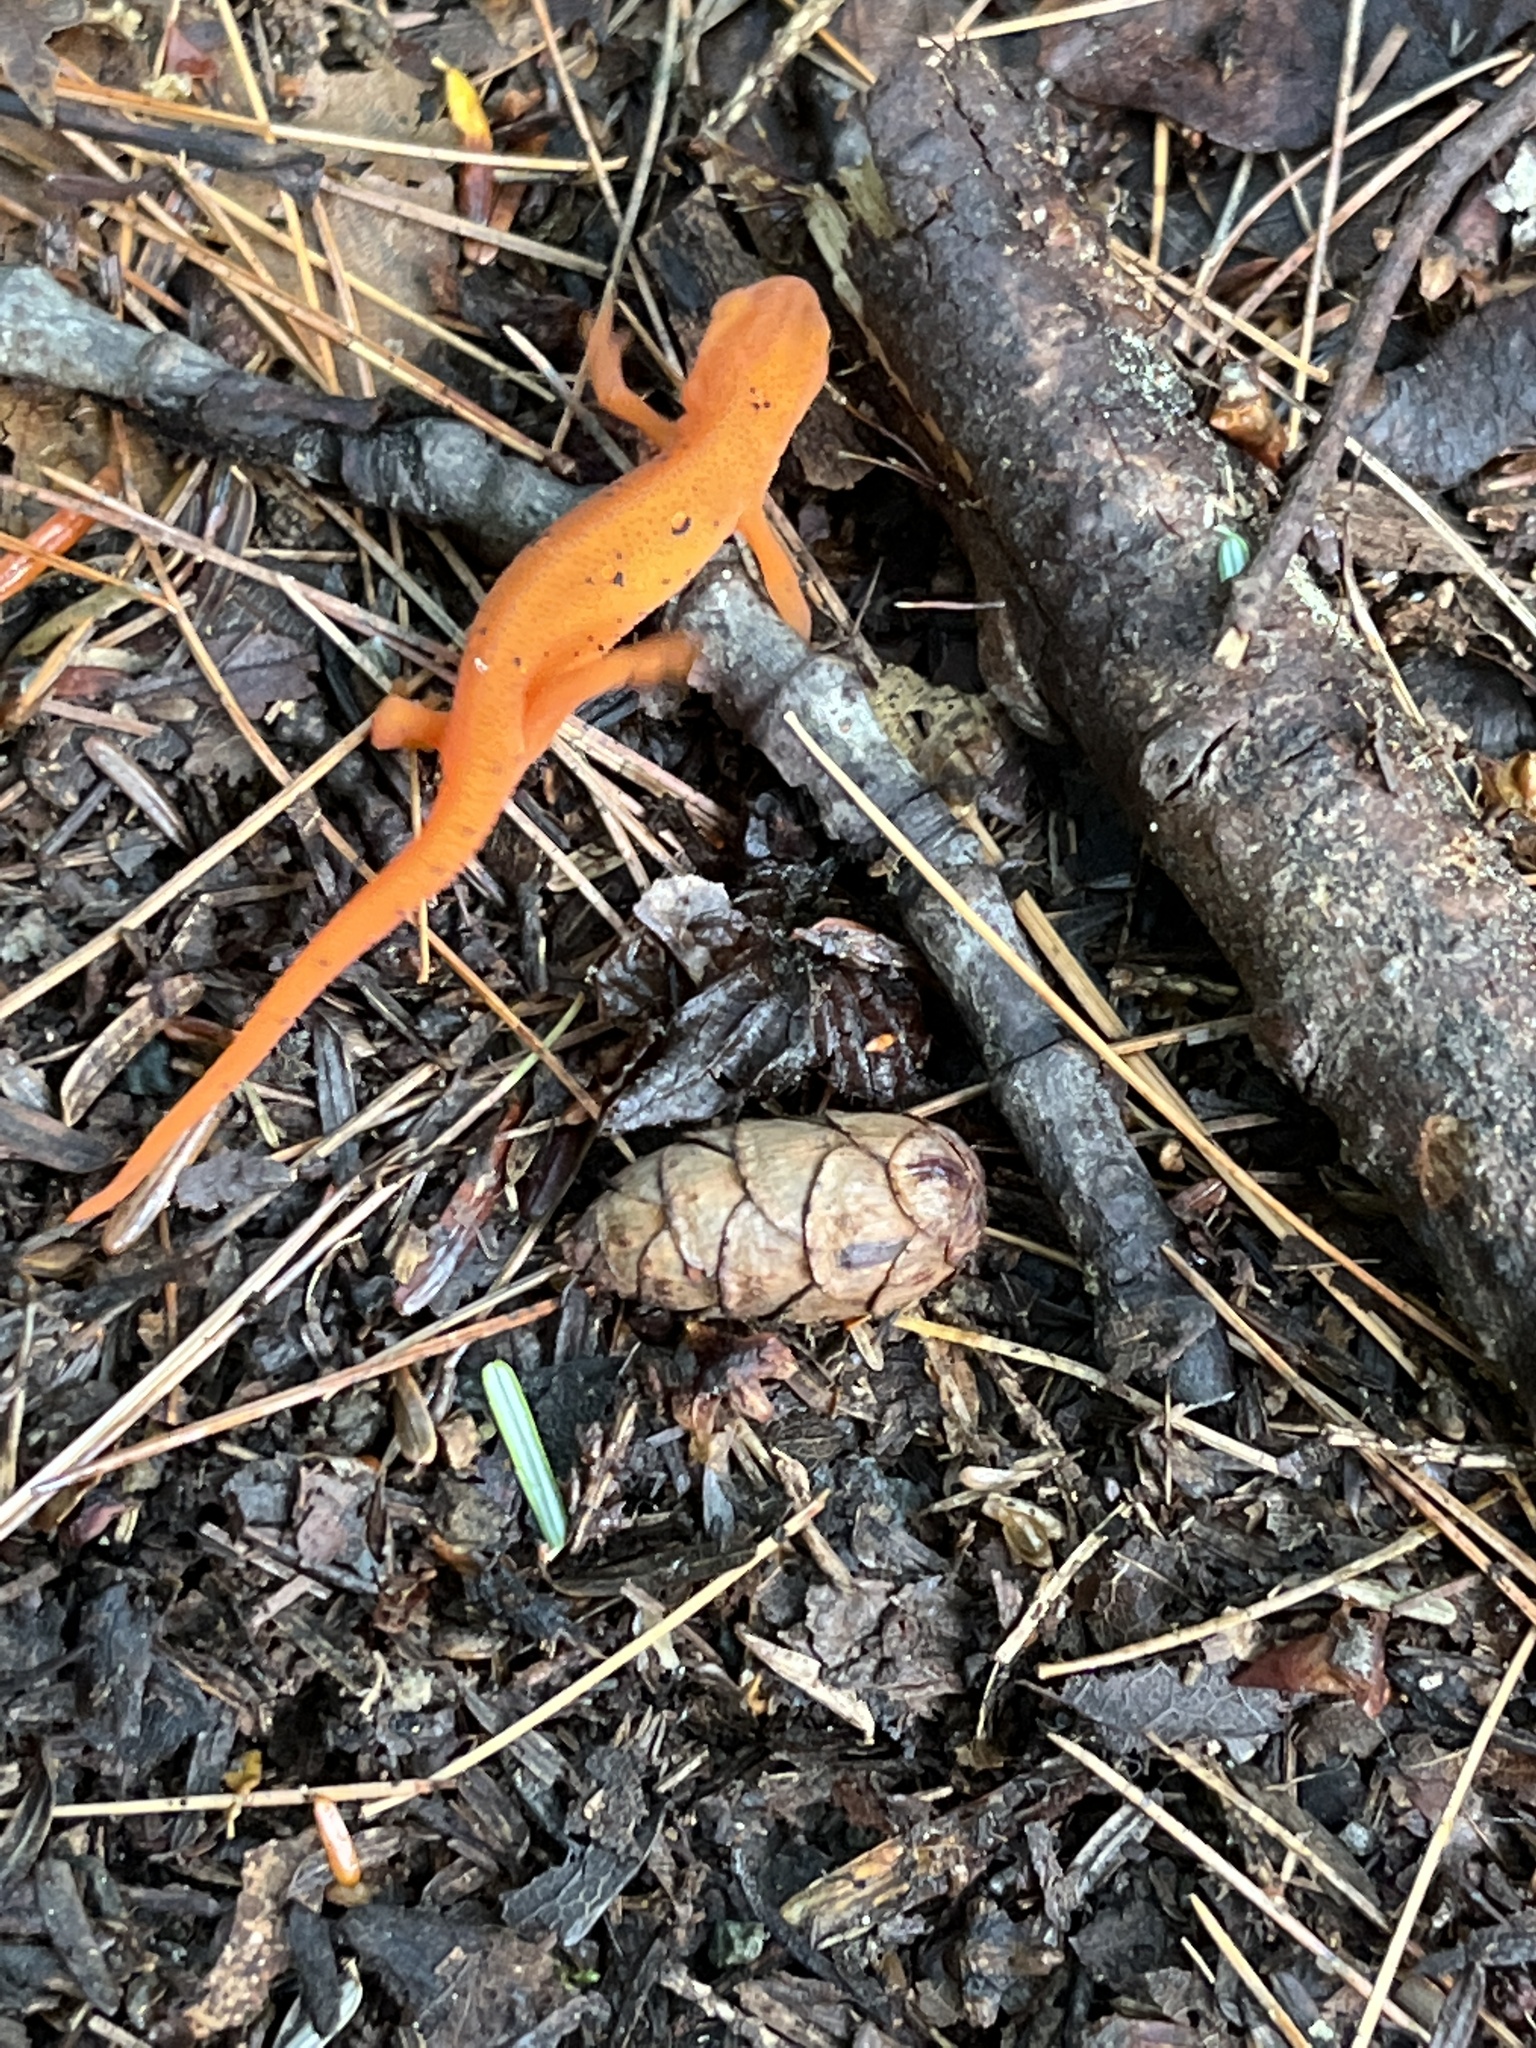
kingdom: Animalia
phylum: Chordata
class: Amphibia
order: Caudata
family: Salamandridae
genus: Notophthalmus
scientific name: Notophthalmus viridescens
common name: Eastern newt
